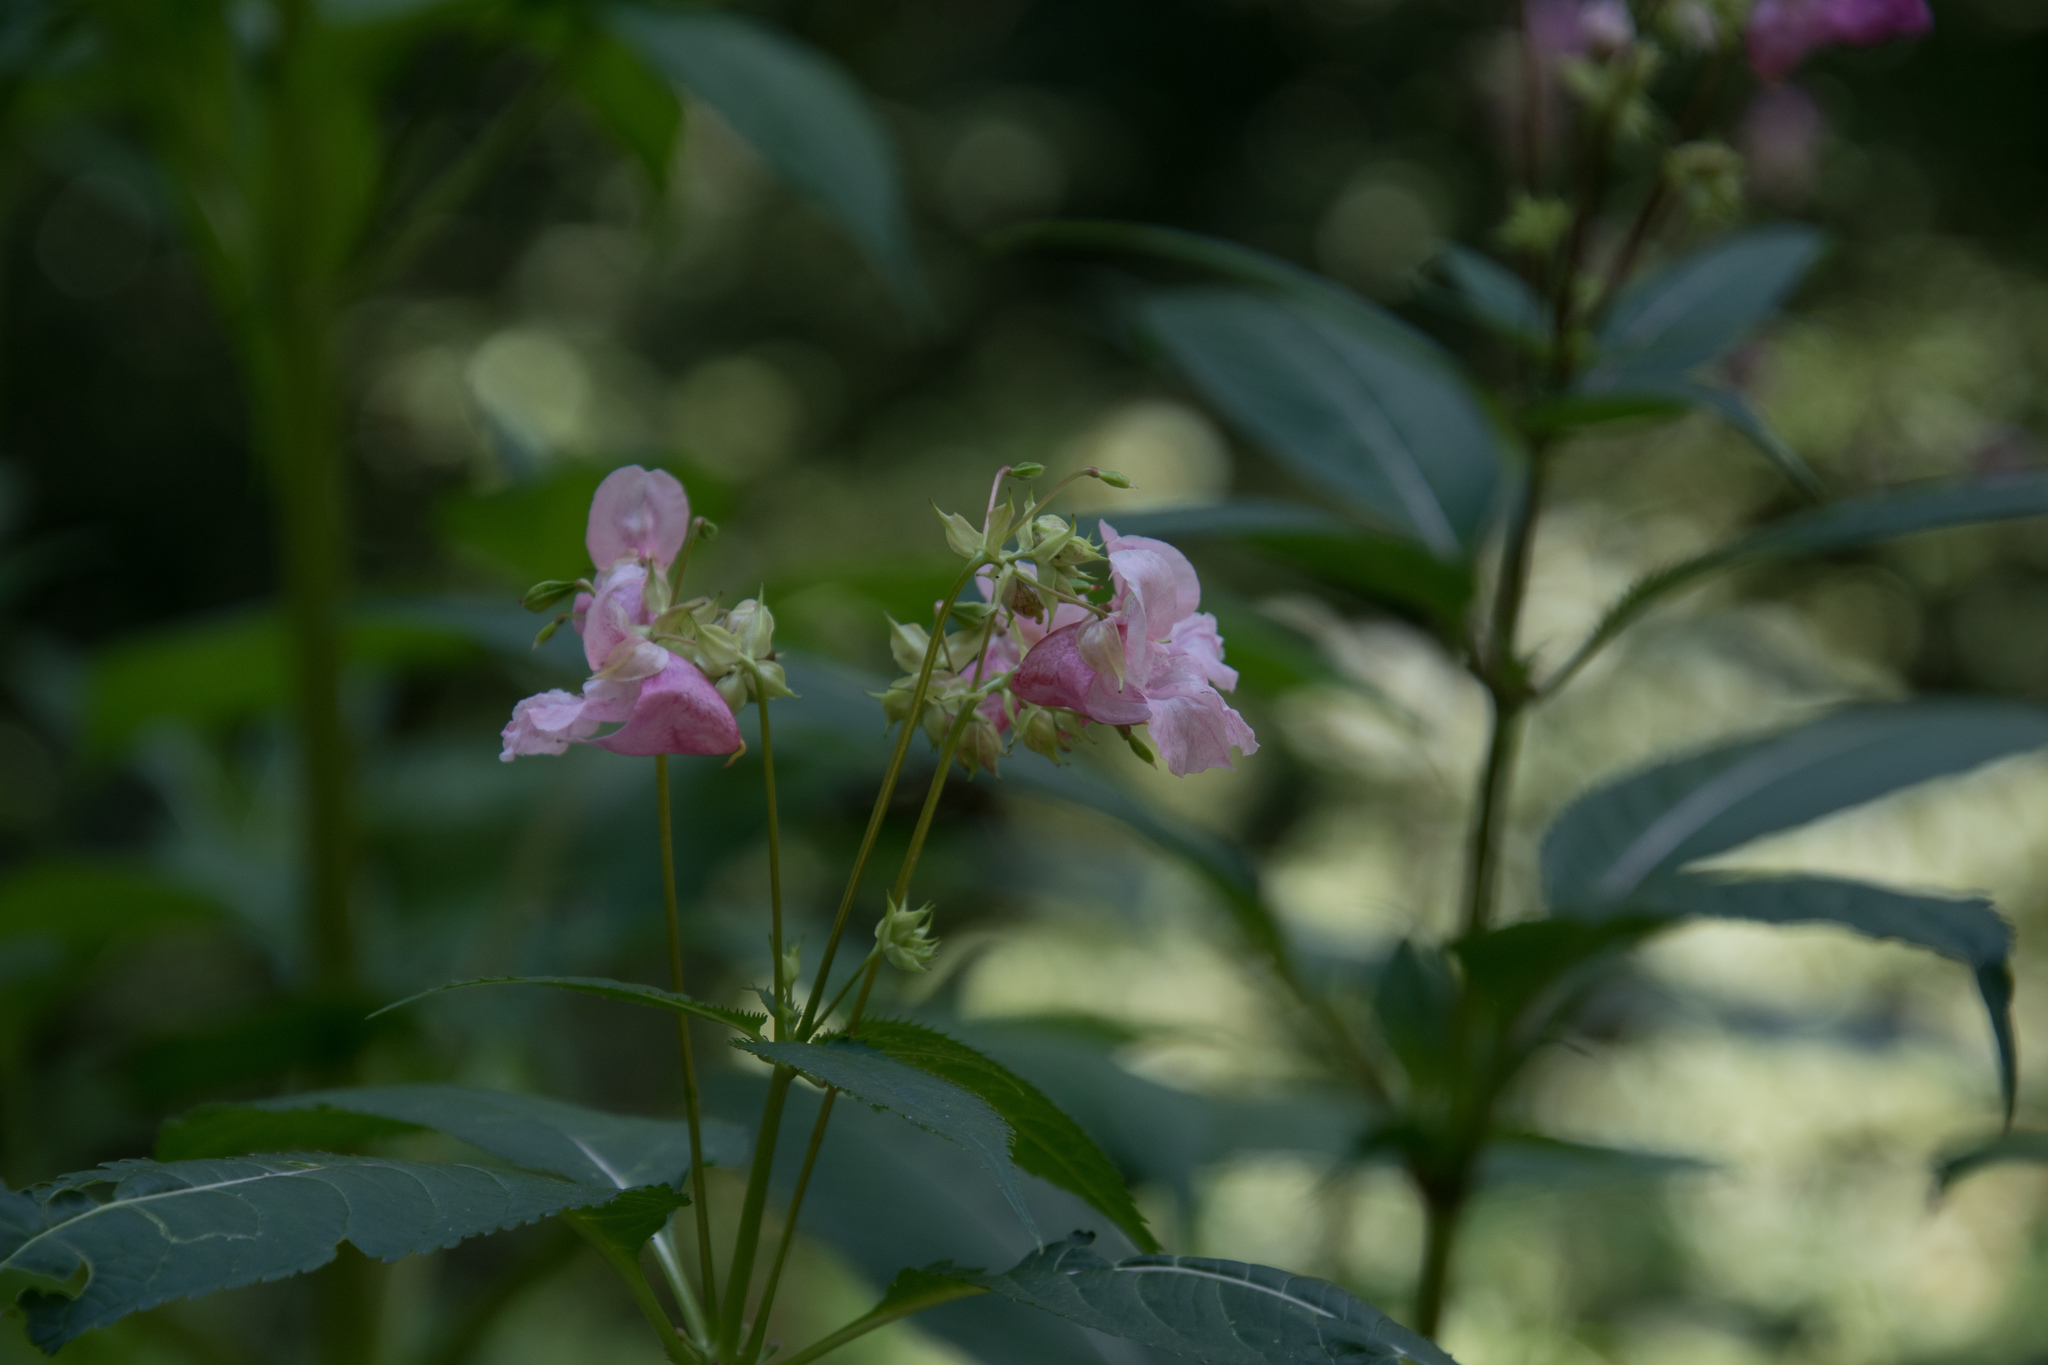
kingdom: Plantae
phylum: Tracheophyta
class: Magnoliopsida
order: Ericales
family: Balsaminaceae
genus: Impatiens
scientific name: Impatiens glandulifera
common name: Himalayan balsam
